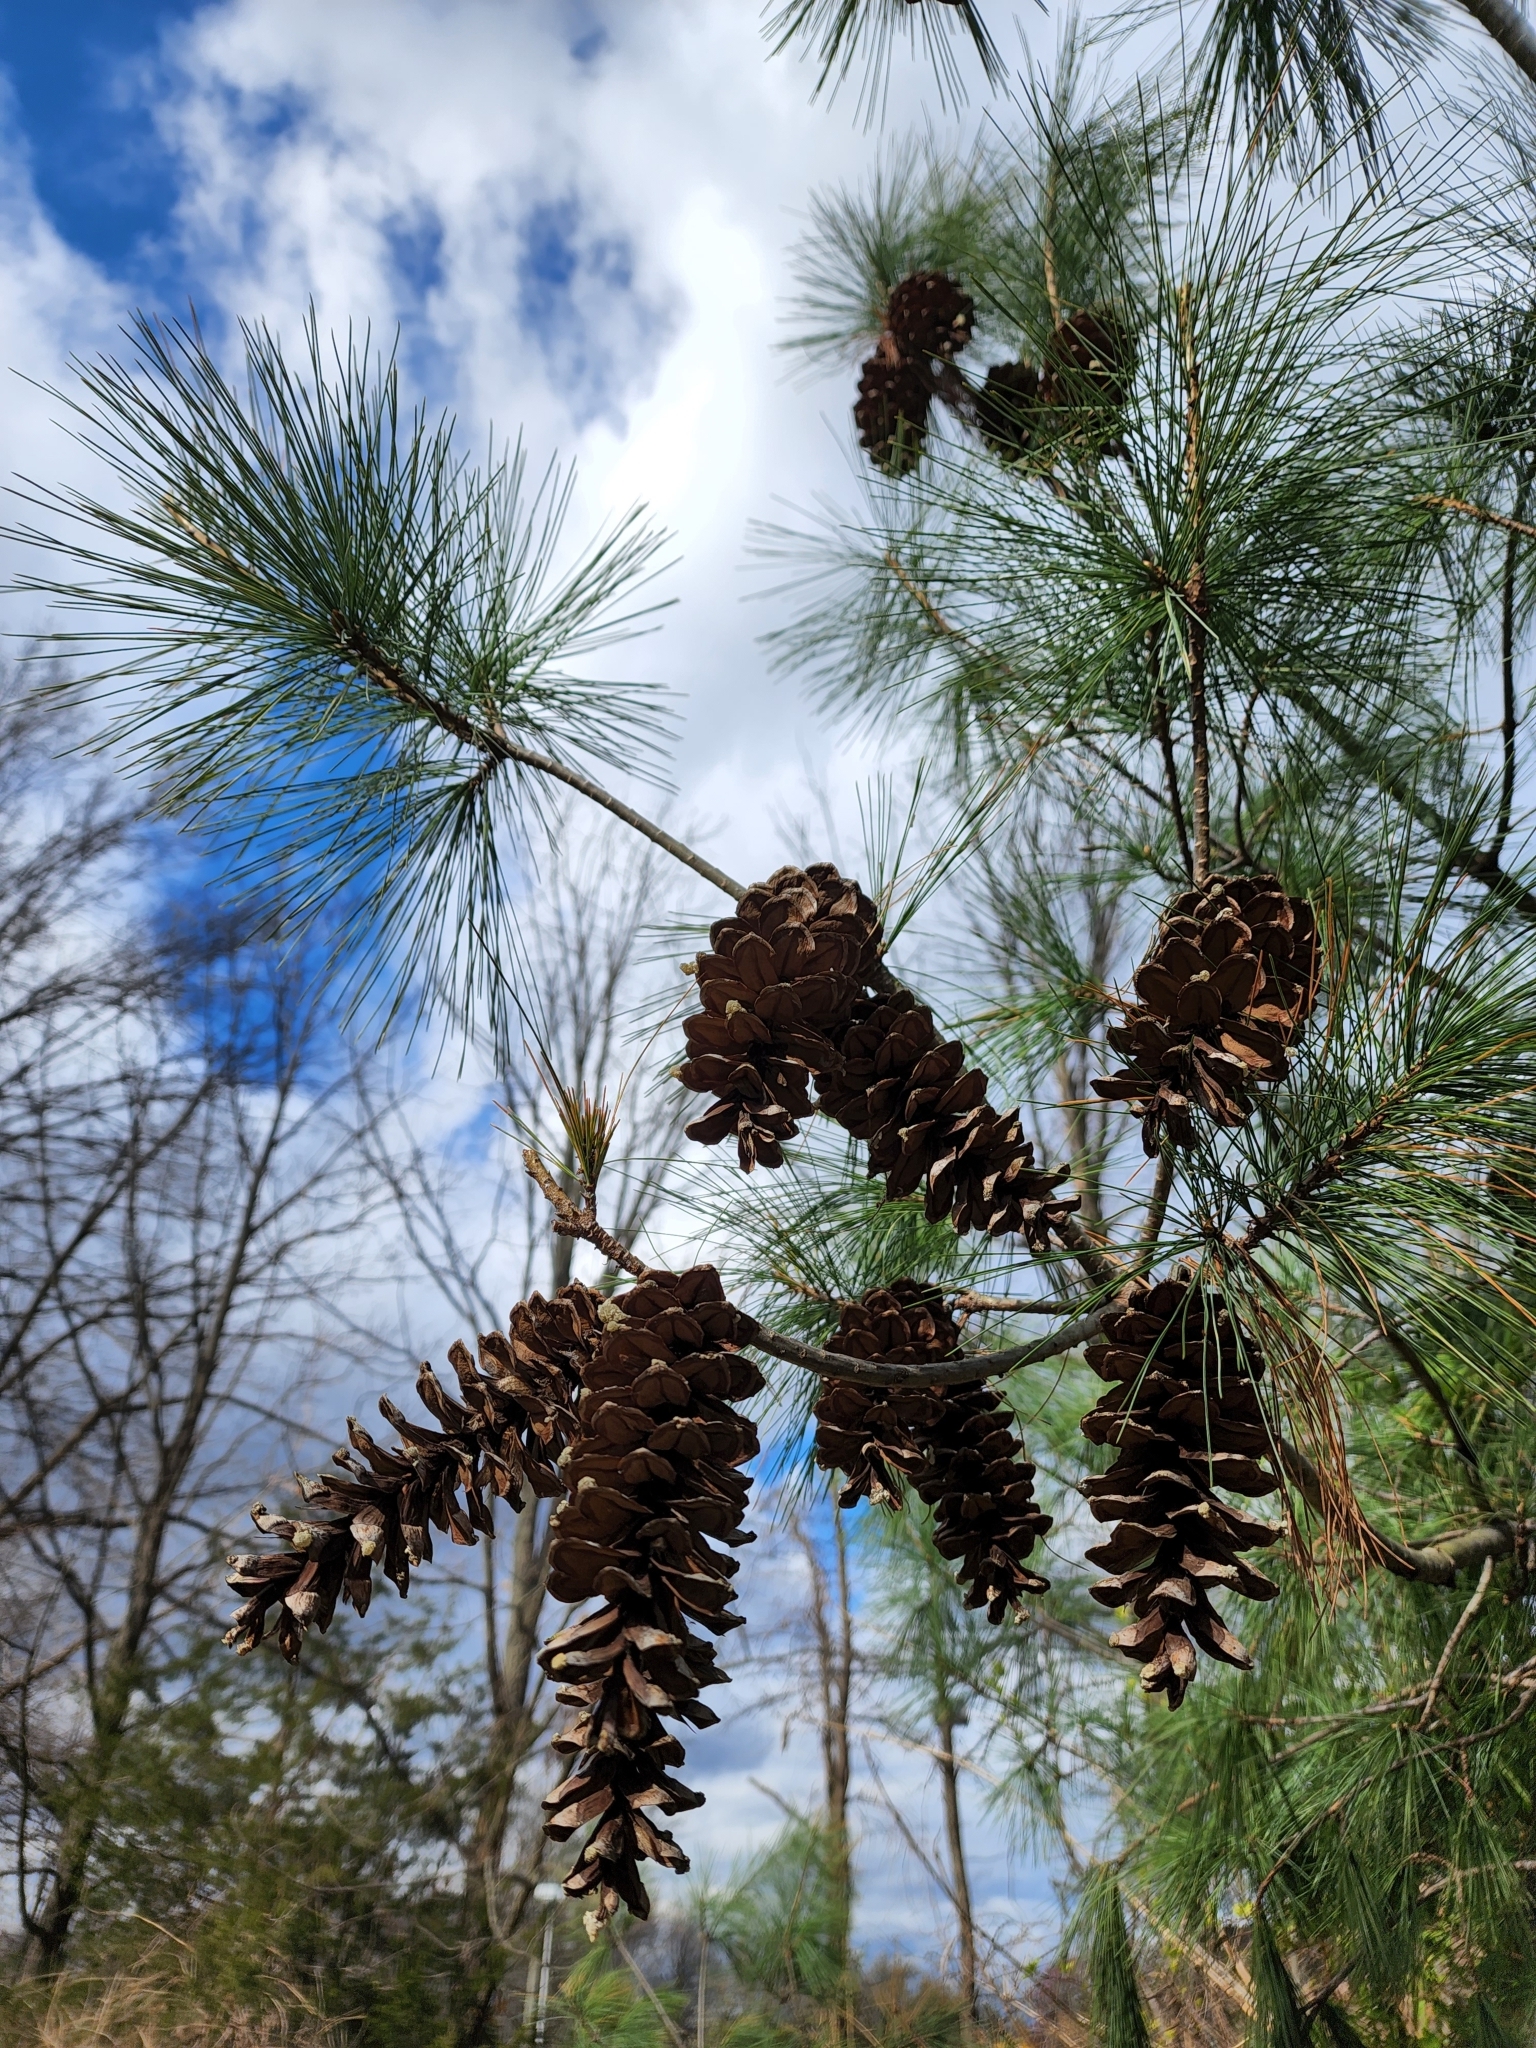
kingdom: Plantae
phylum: Tracheophyta
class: Pinopsida
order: Pinales
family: Pinaceae
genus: Pinus
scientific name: Pinus strobus
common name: Weymouth pine
